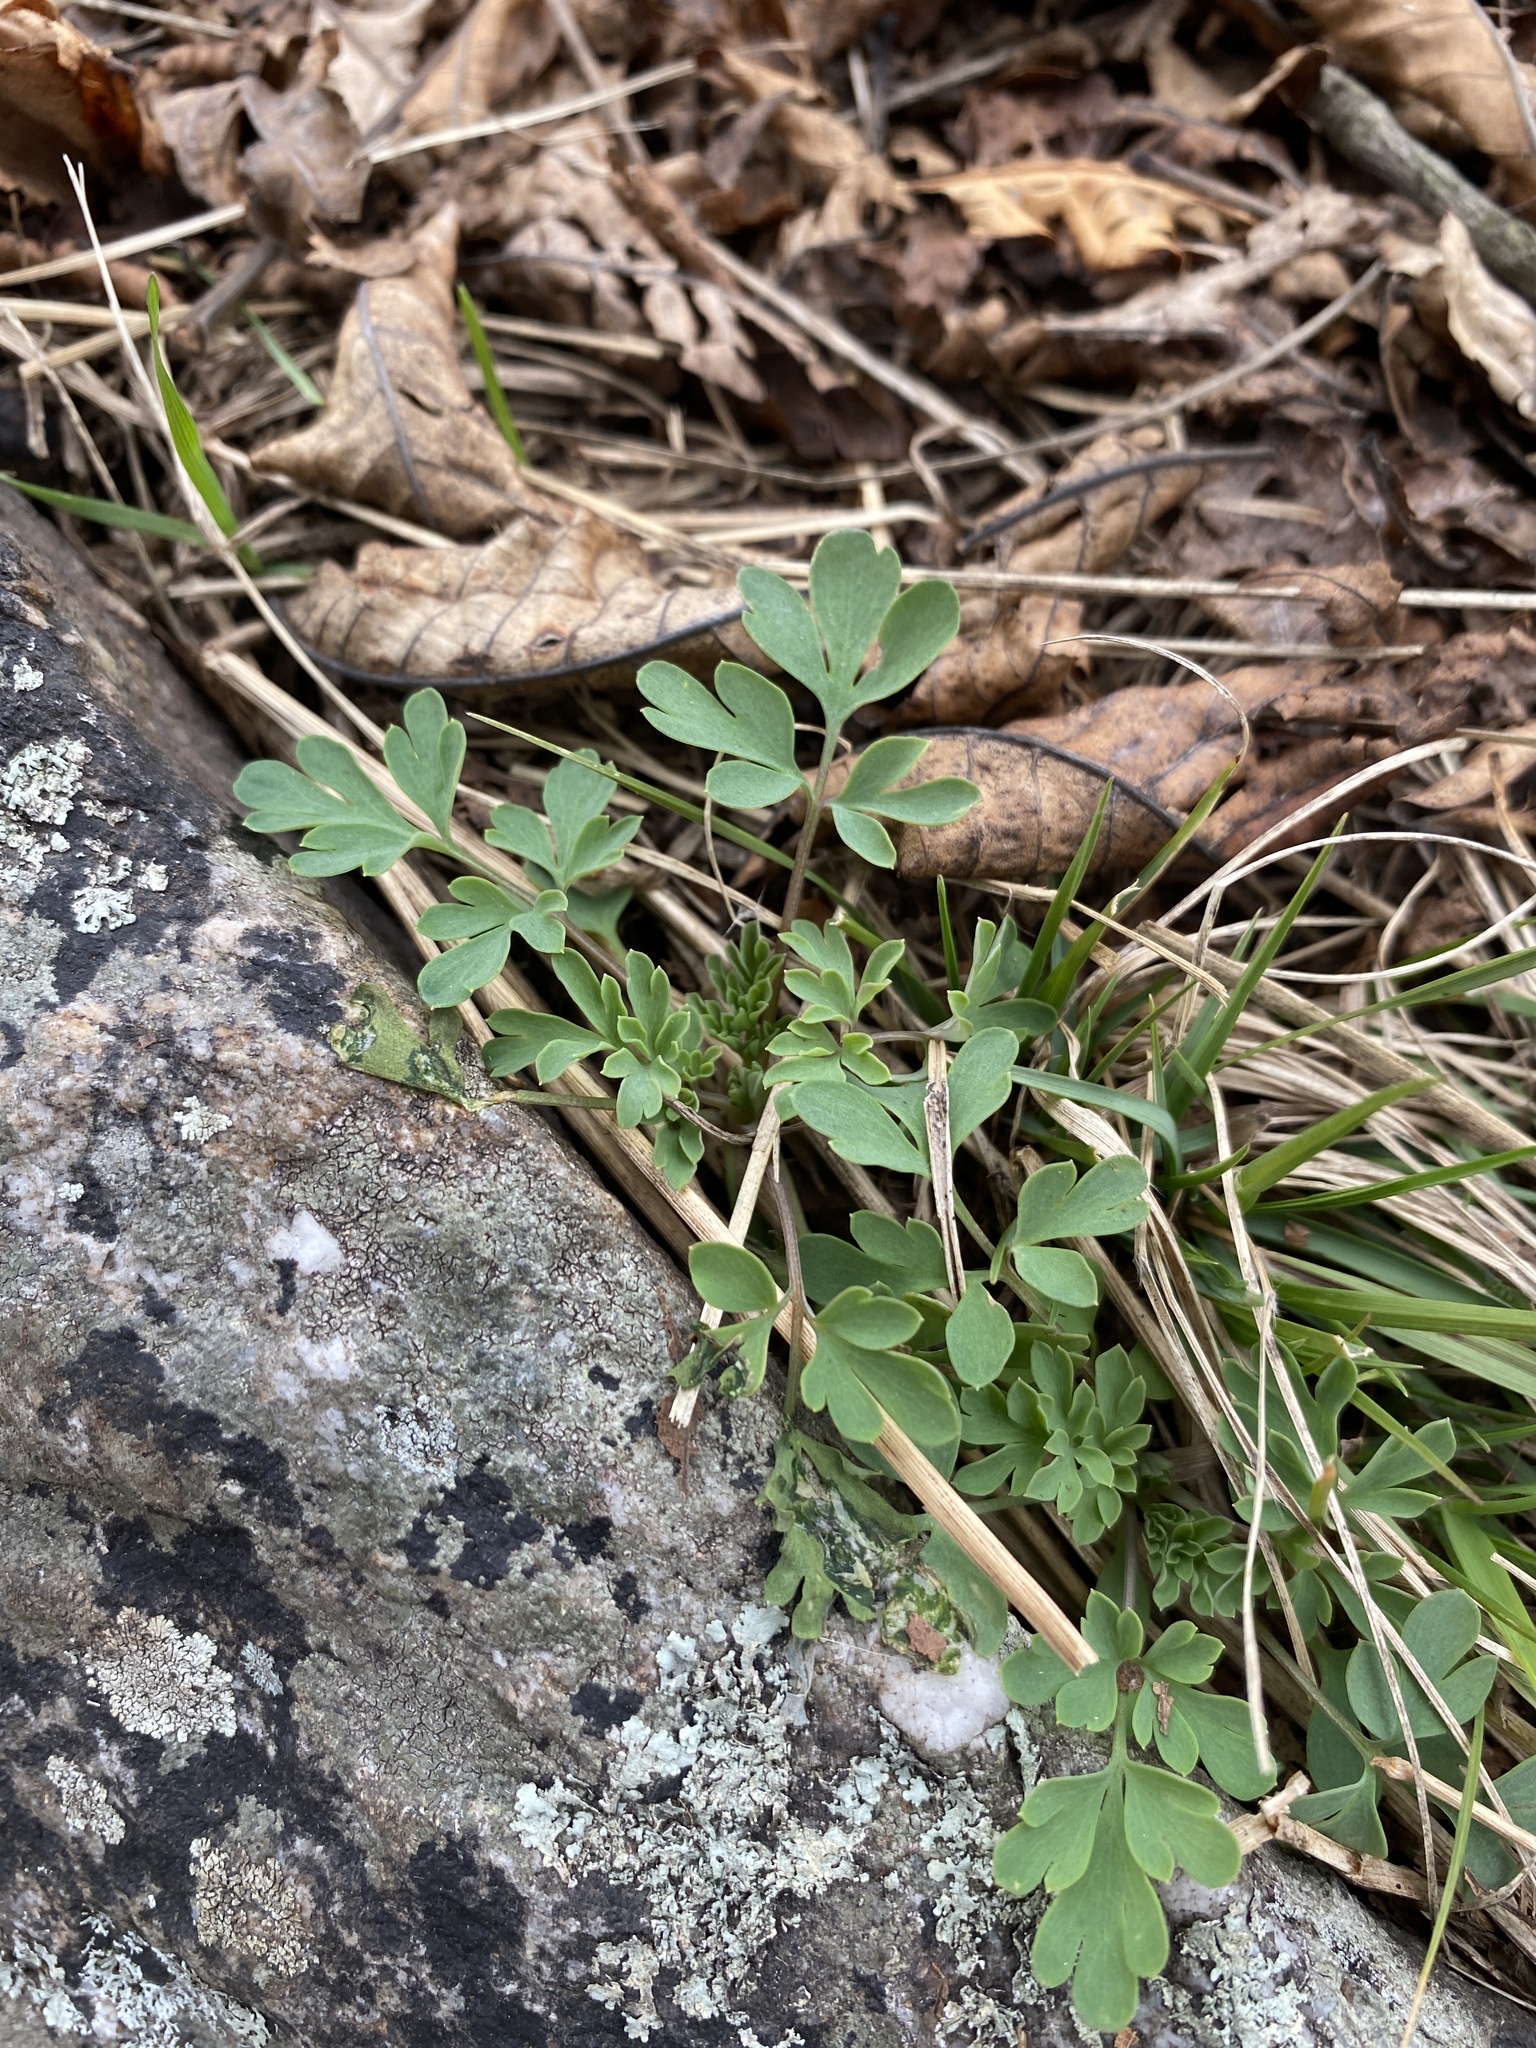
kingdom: Plantae
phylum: Tracheophyta
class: Magnoliopsida
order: Ranunculales
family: Papaveraceae
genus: Capnoides
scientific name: Capnoides sempervirens
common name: Rock harlequin
